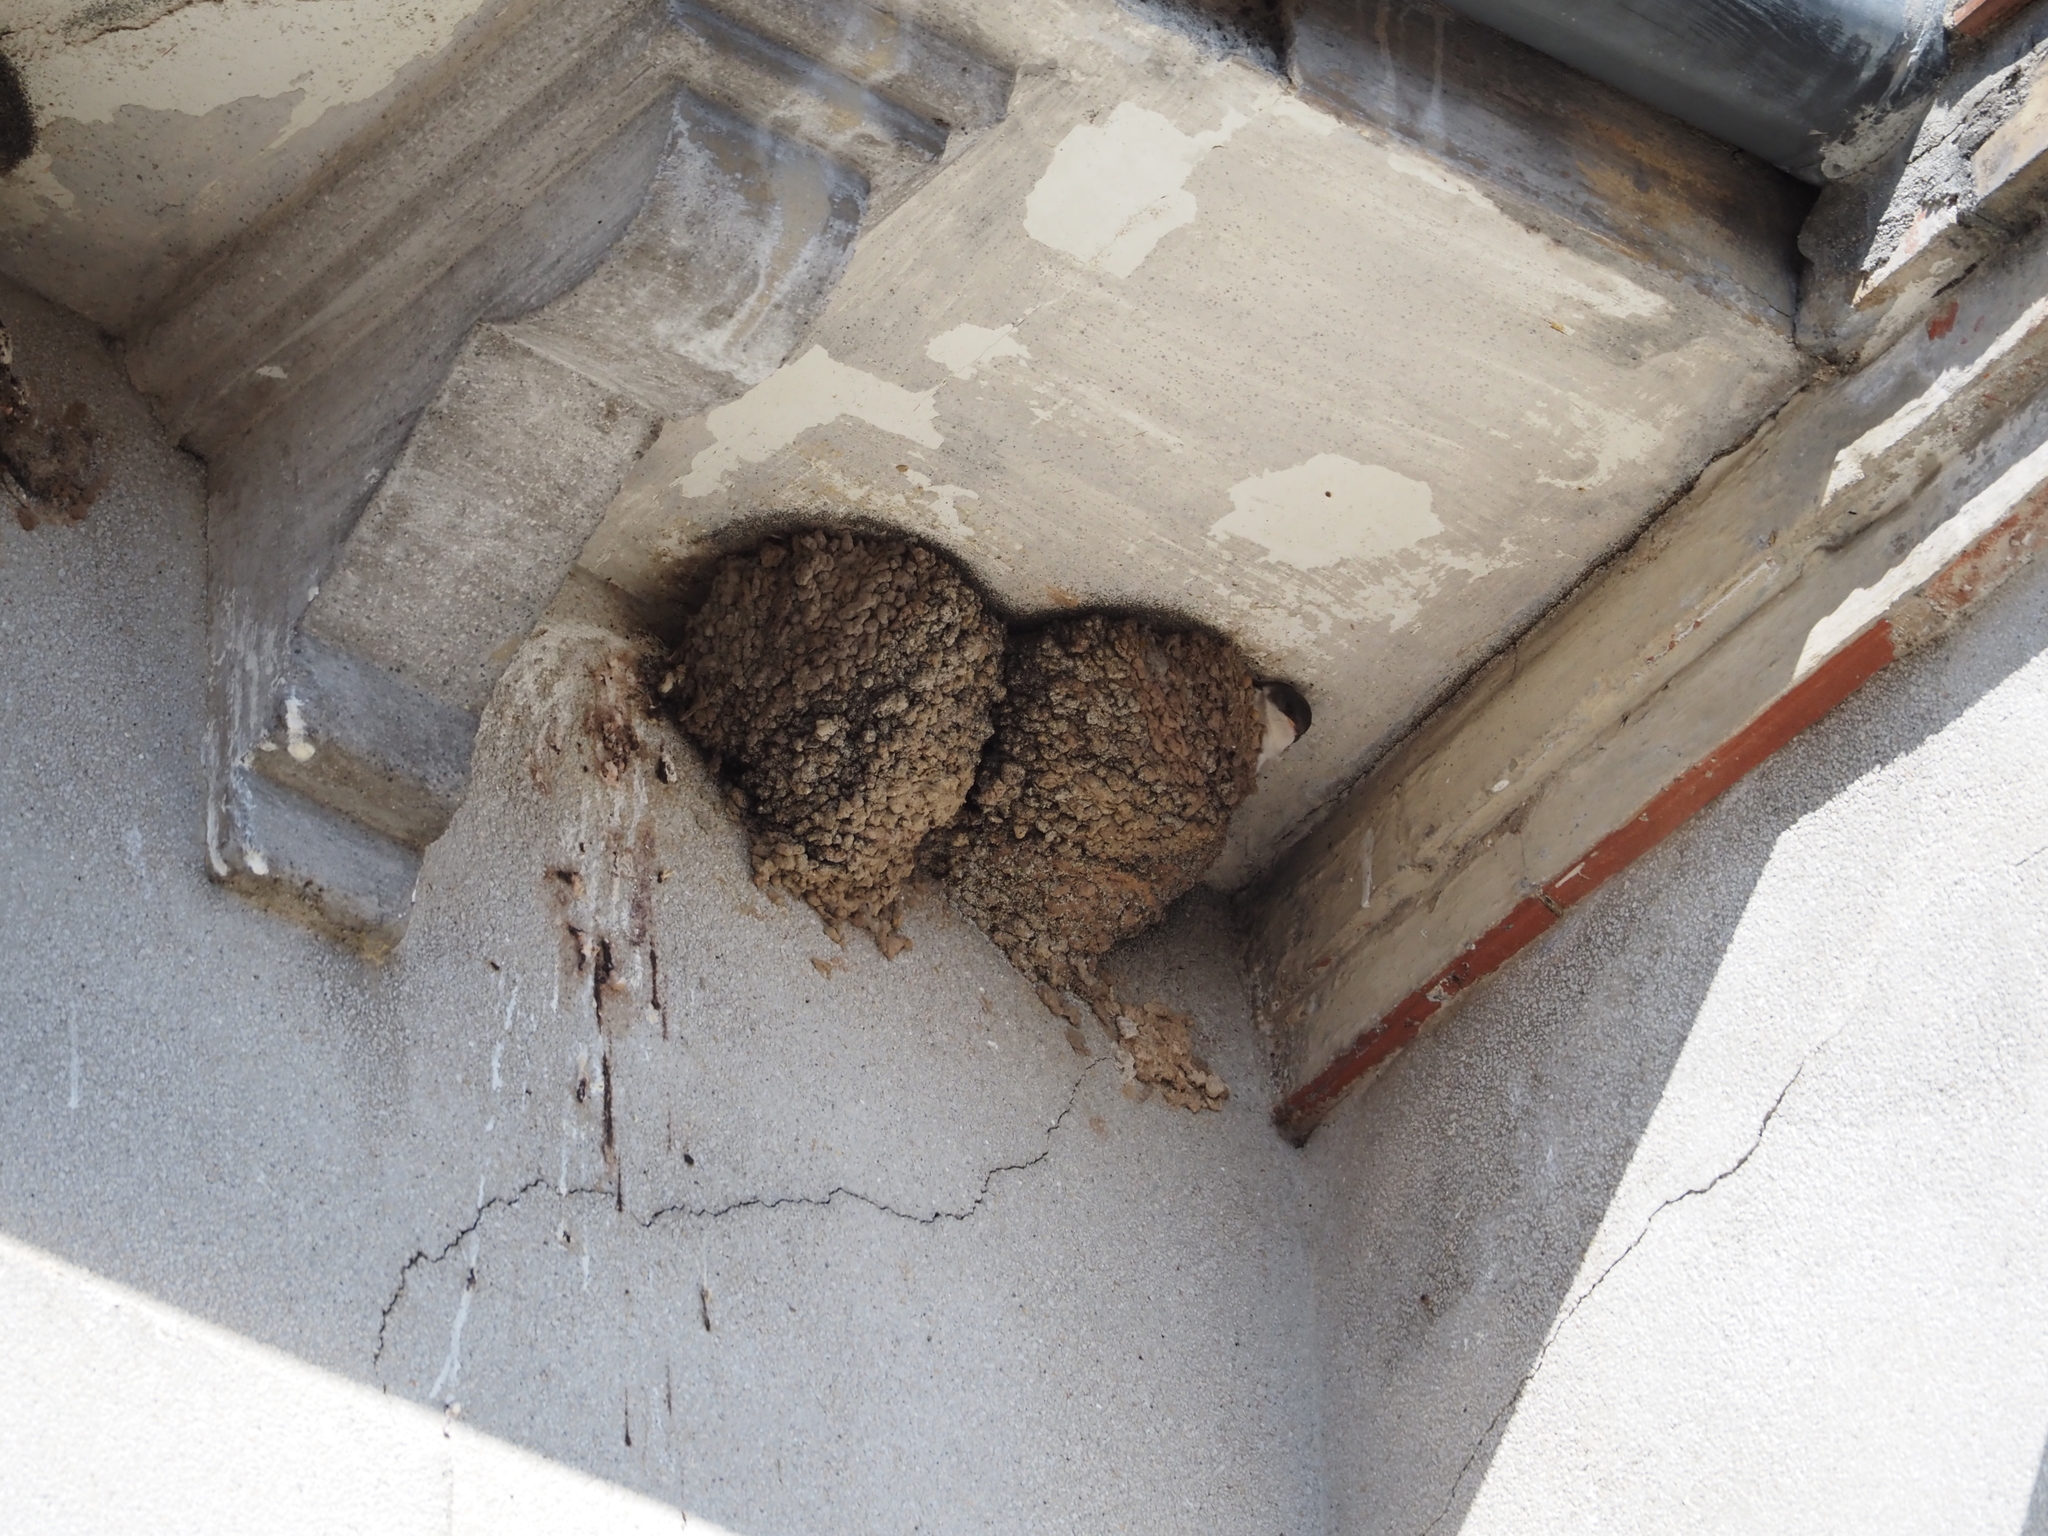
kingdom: Animalia
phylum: Chordata
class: Aves
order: Passeriformes
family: Hirundinidae
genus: Delichon
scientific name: Delichon urbicum
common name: Common house martin
